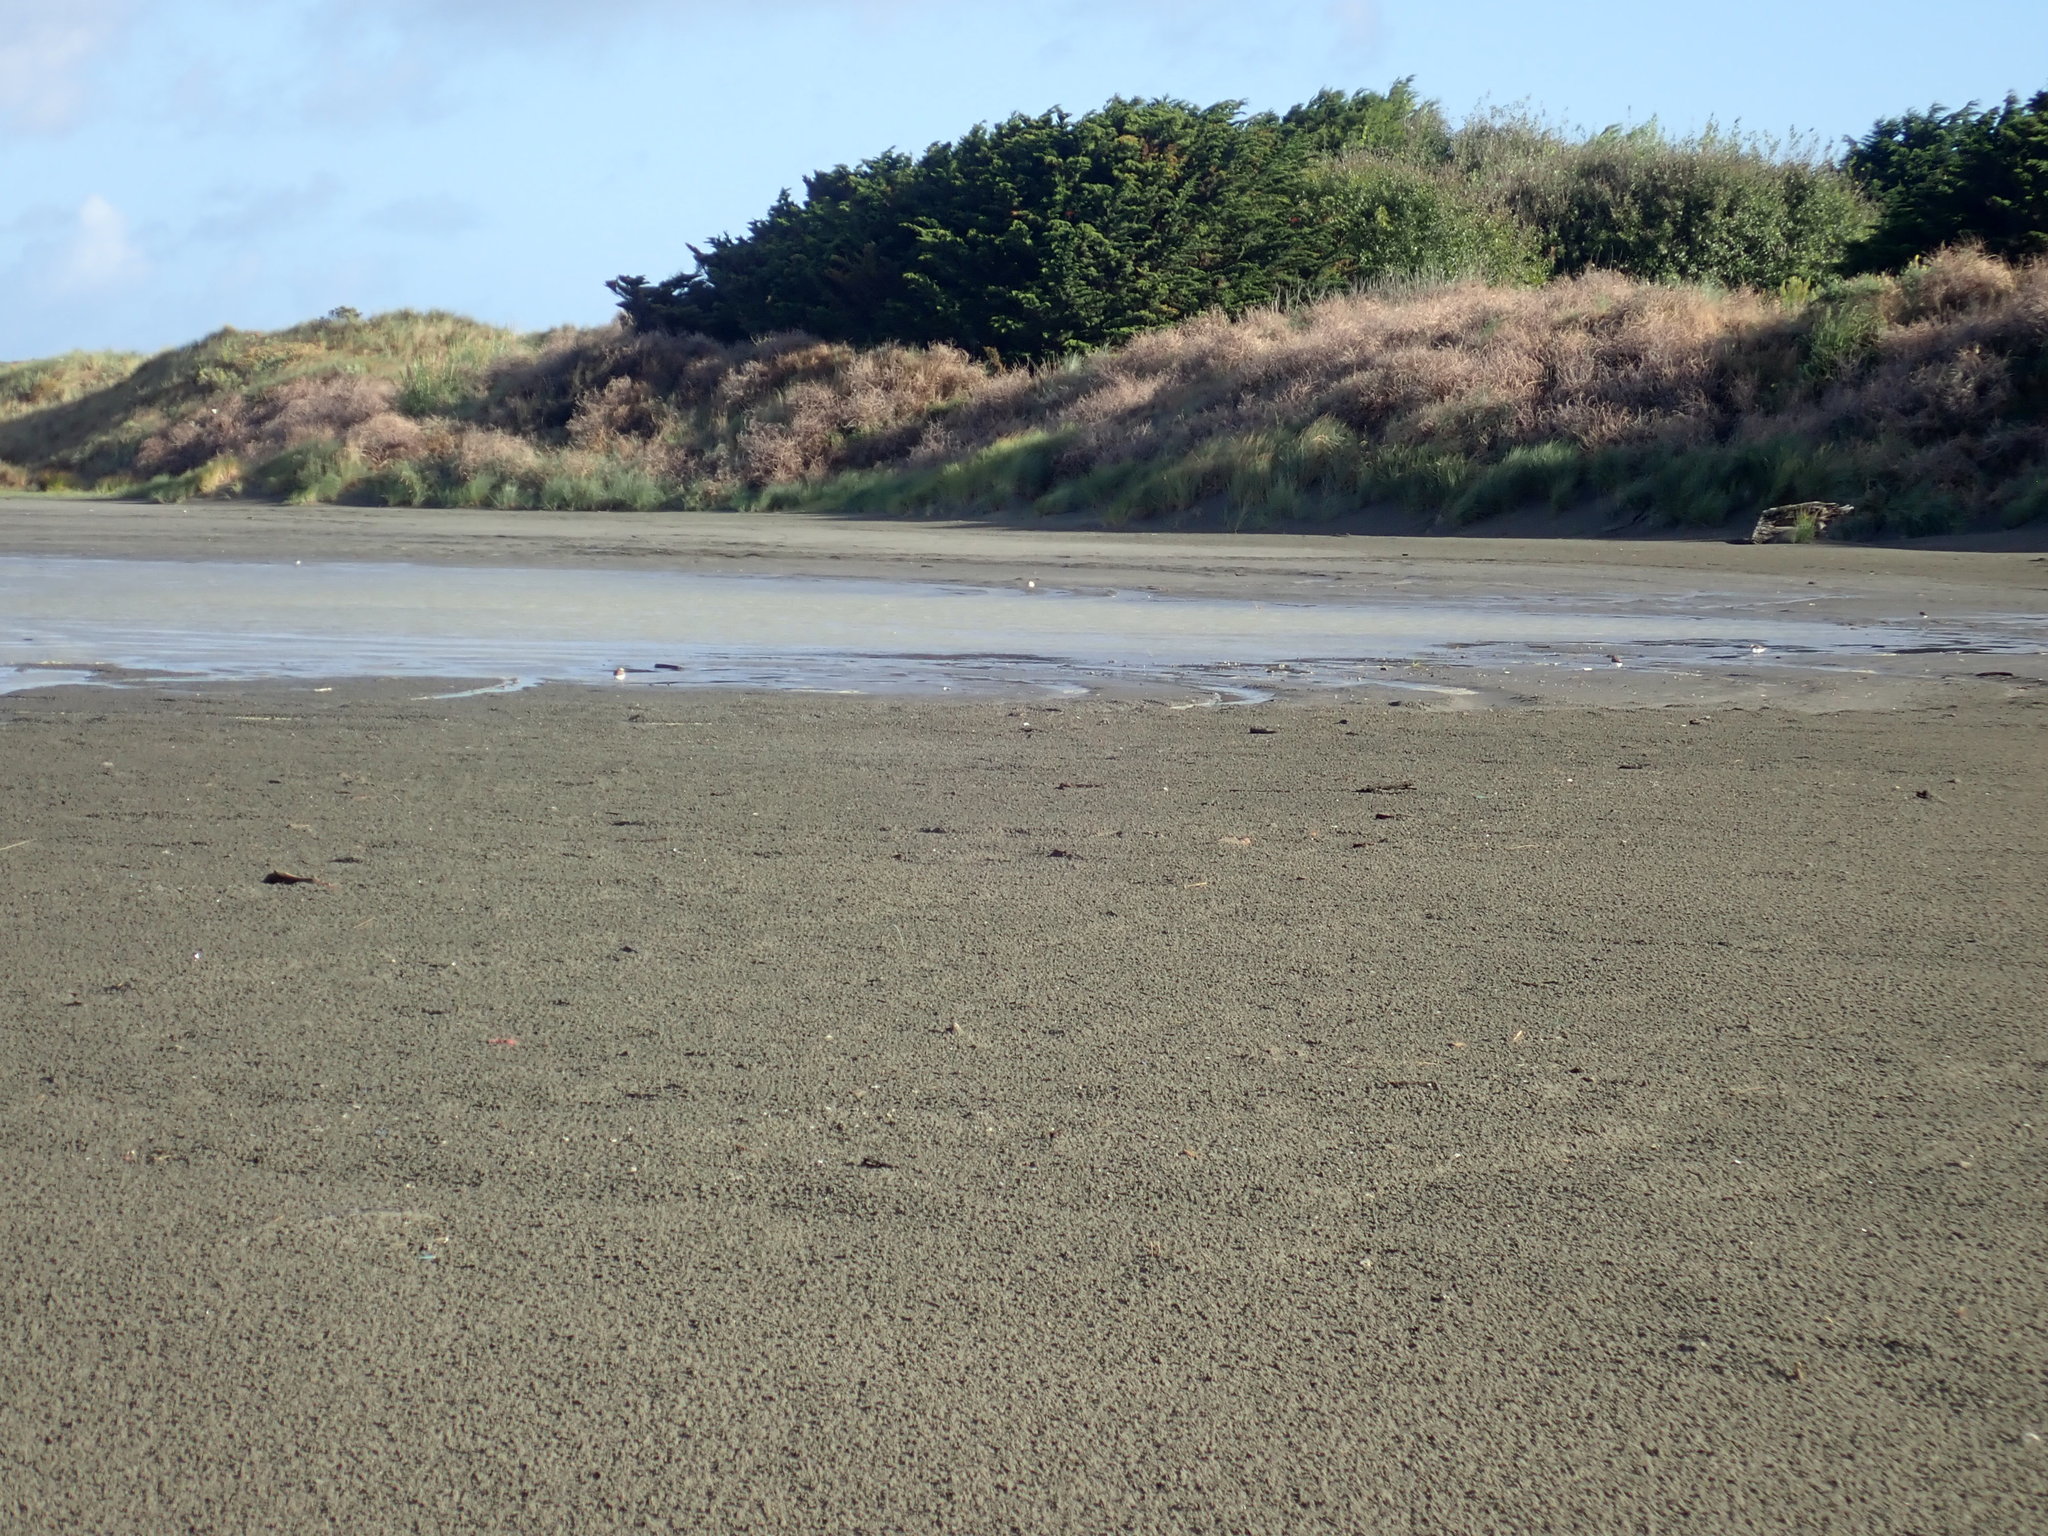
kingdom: Animalia
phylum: Chordata
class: Aves
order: Charadriiformes
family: Charadriidae
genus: Anarhynchus
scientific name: Anarhynchus
